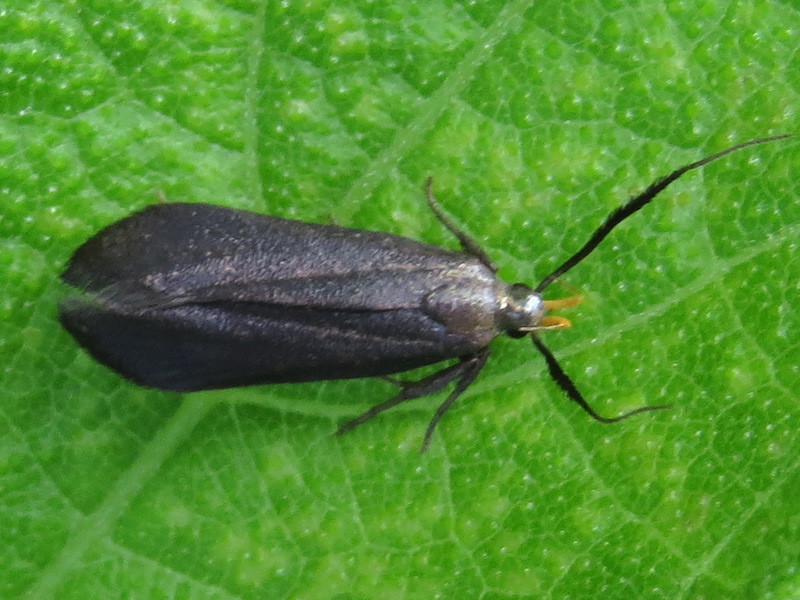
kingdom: Animalia
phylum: Arthropoda
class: Insecta
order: Lepidoptera
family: Gelechiidae
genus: Dichomeris
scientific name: Dichomeris nonstrigella
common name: Little devil moth
